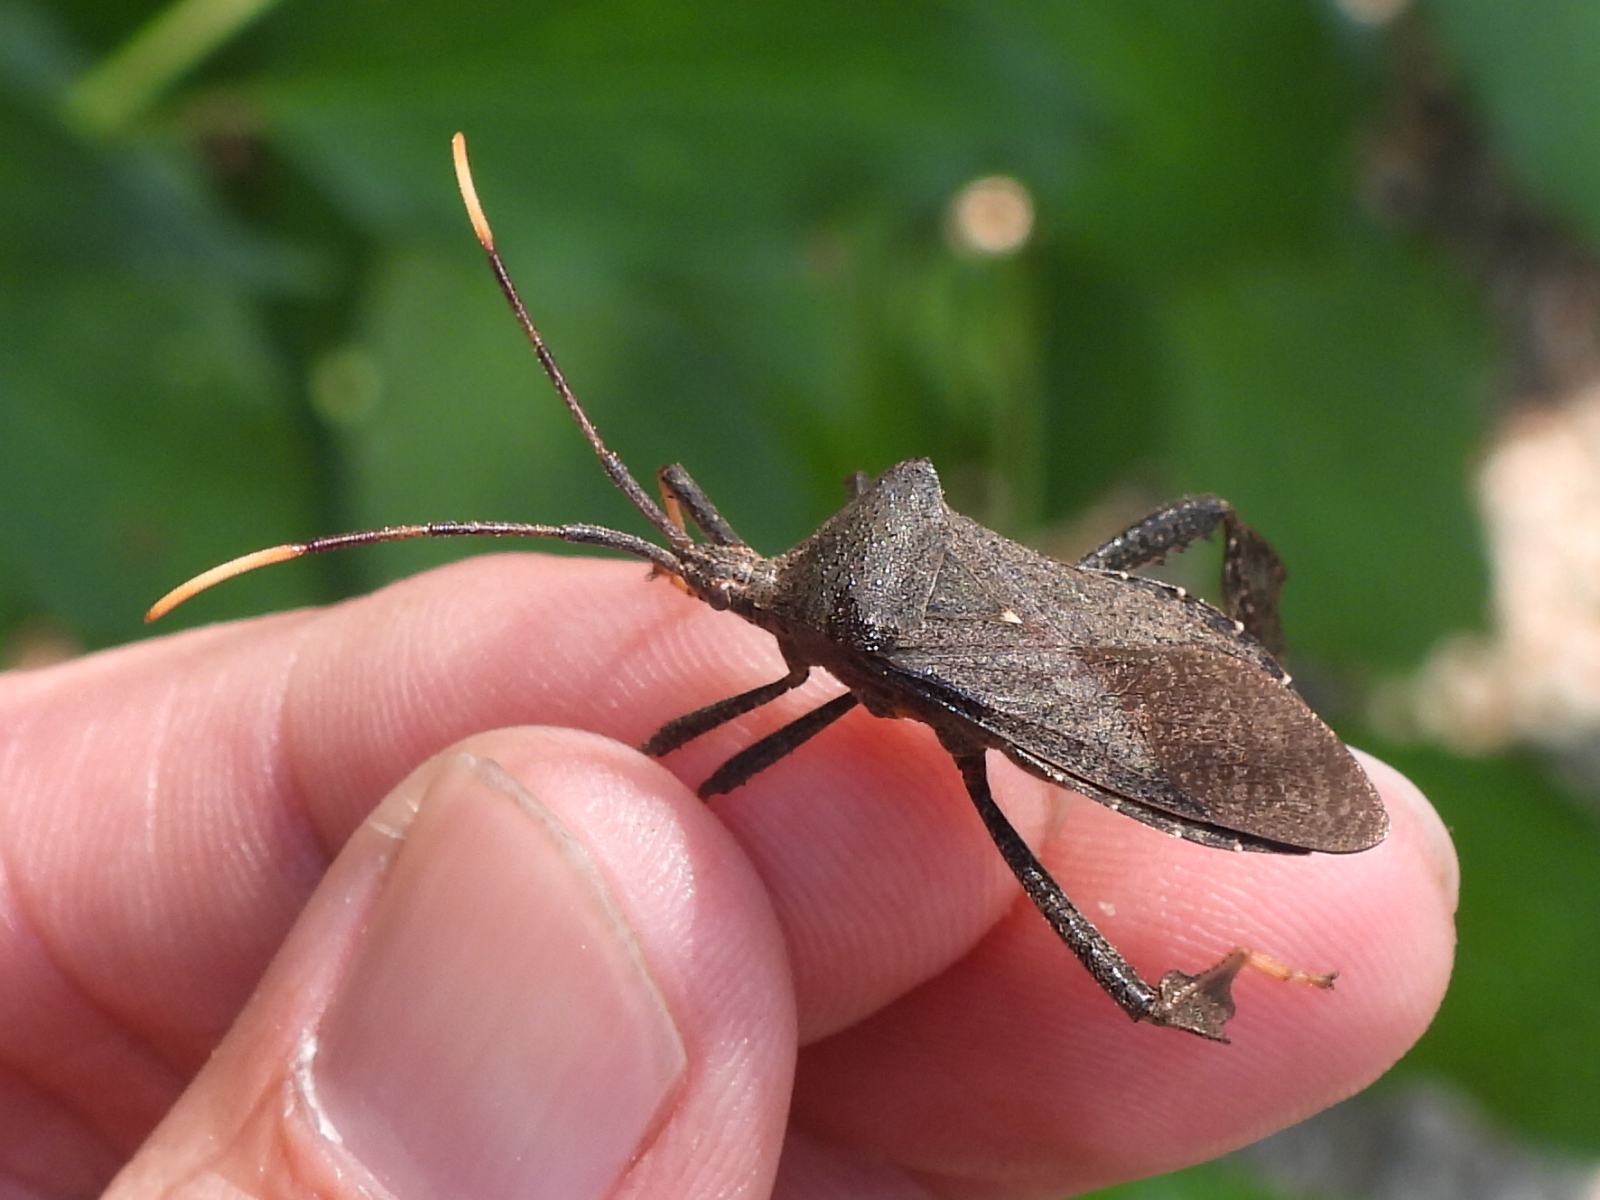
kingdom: Animalia
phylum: Arthropoda
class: Insecta
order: Hemiptera
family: Coreidae
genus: Acanthocephala
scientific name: Acanthocephala terminalis
